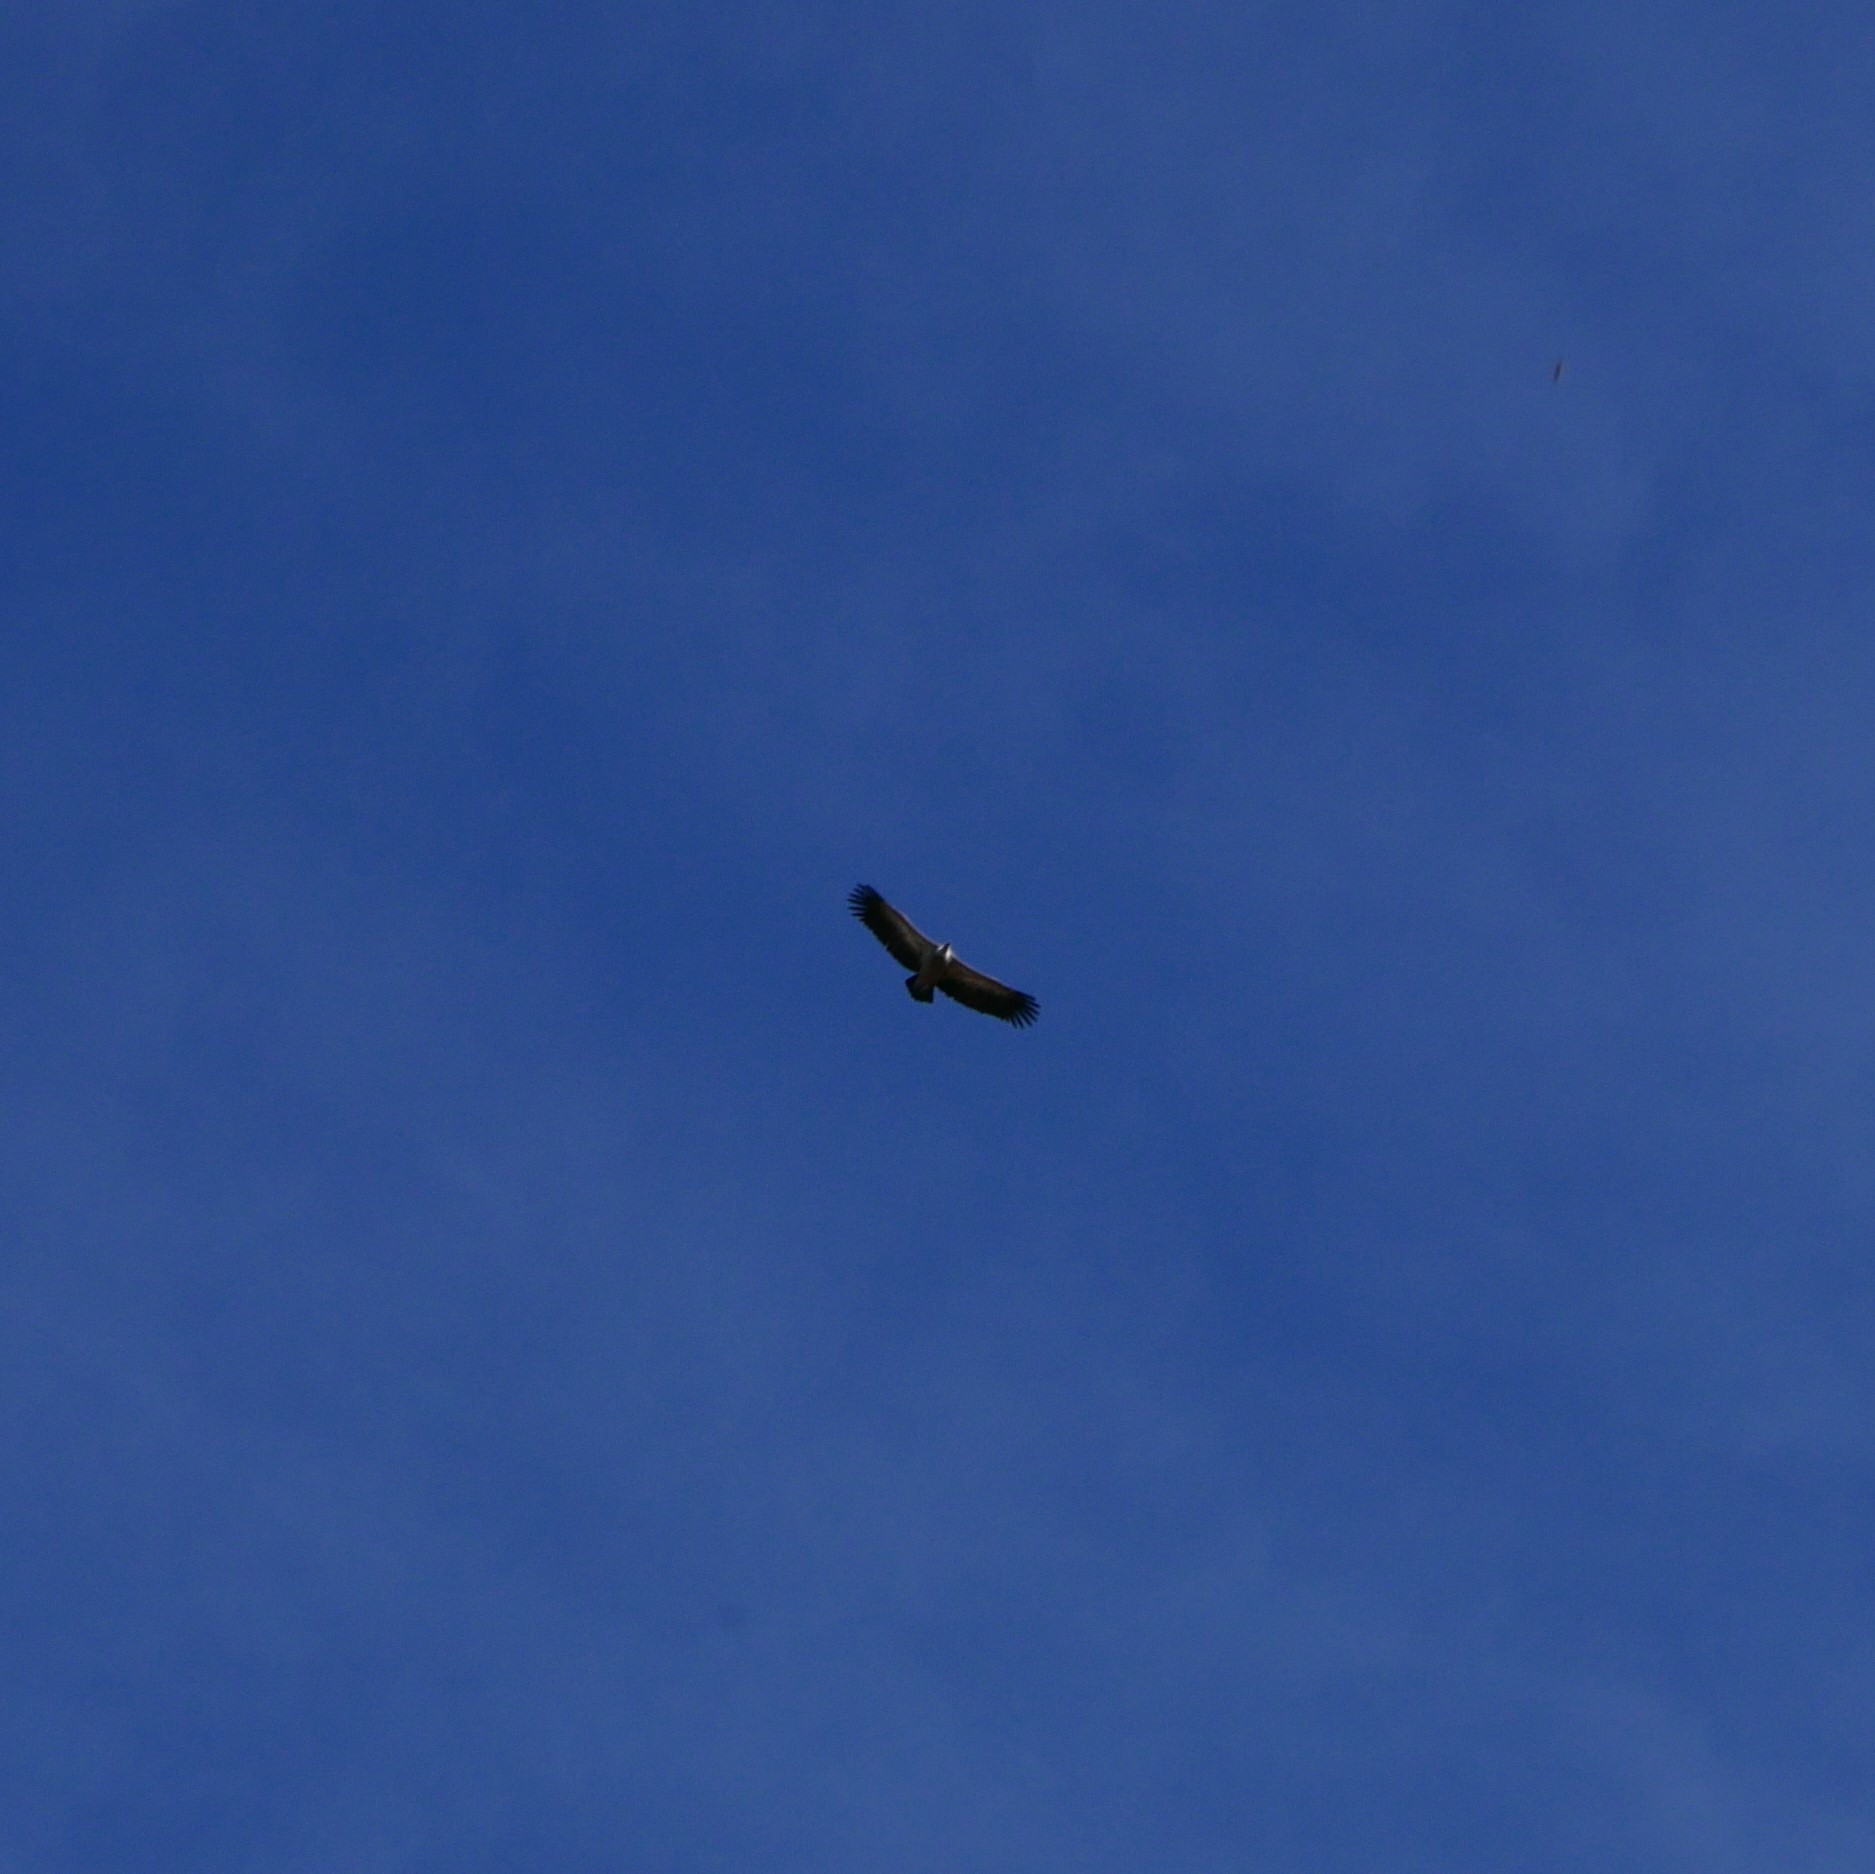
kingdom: Animalia
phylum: Chordata
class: Aves
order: Accipitriformes
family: Accipitridae
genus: Gyps
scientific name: Gyps fulvus
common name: Griffon vulture
